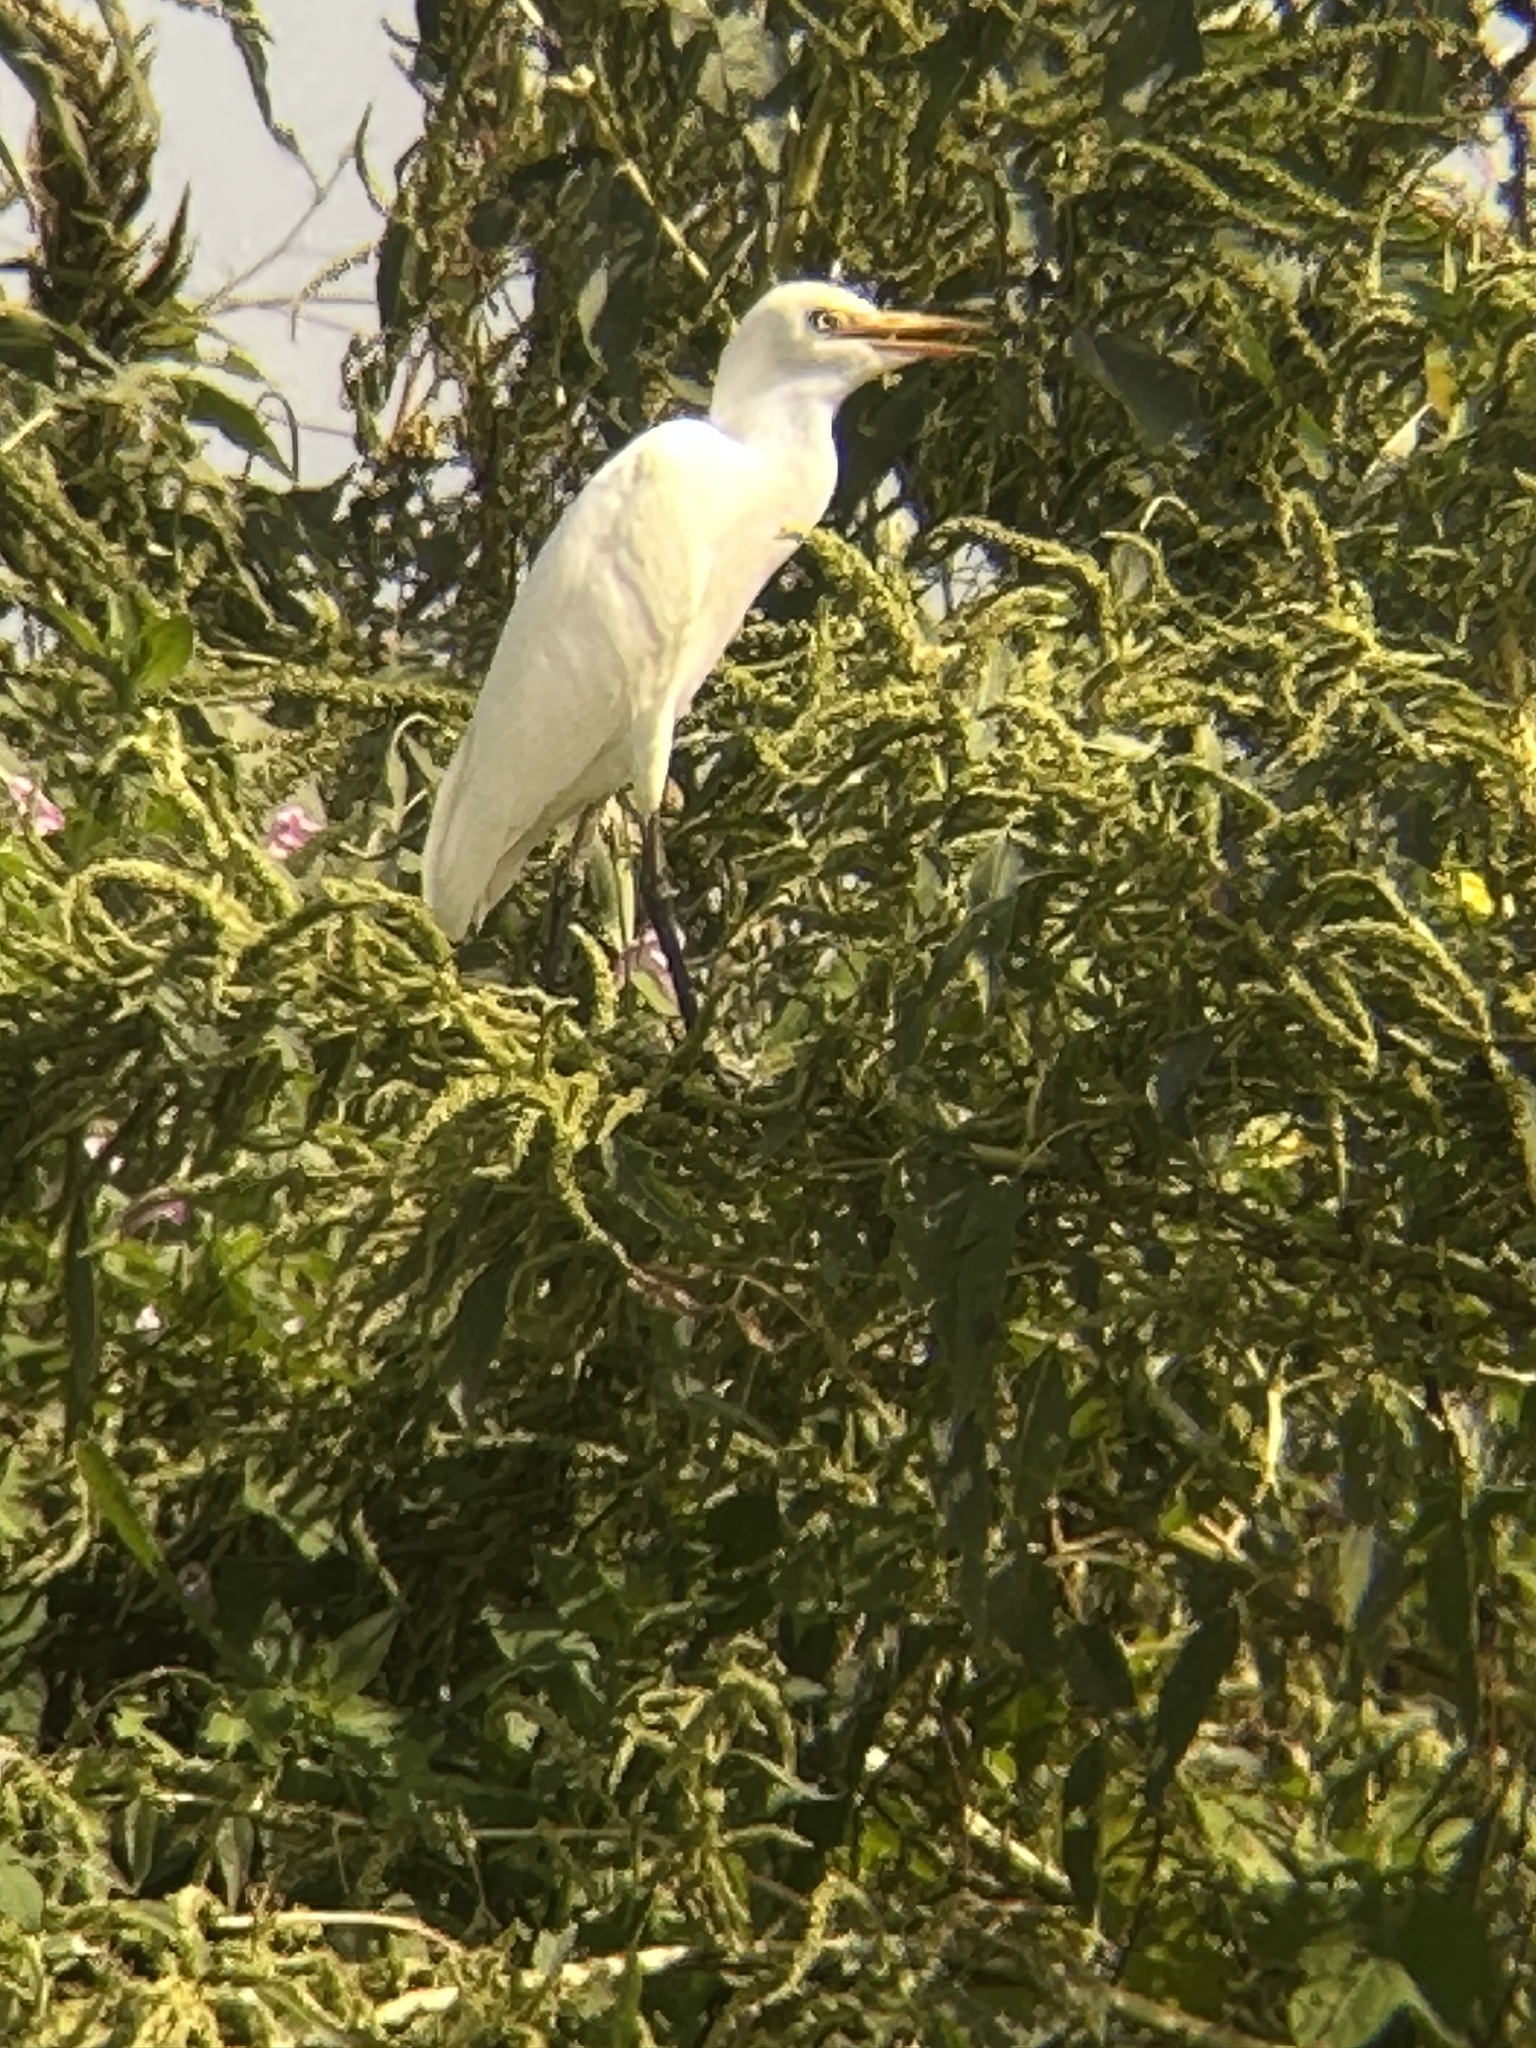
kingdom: Animalia
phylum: Chordata
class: Aves
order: Pelecaniformes
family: Ardeidae
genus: Bubulcus
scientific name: Bubulcus ibis
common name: Cattle egret
